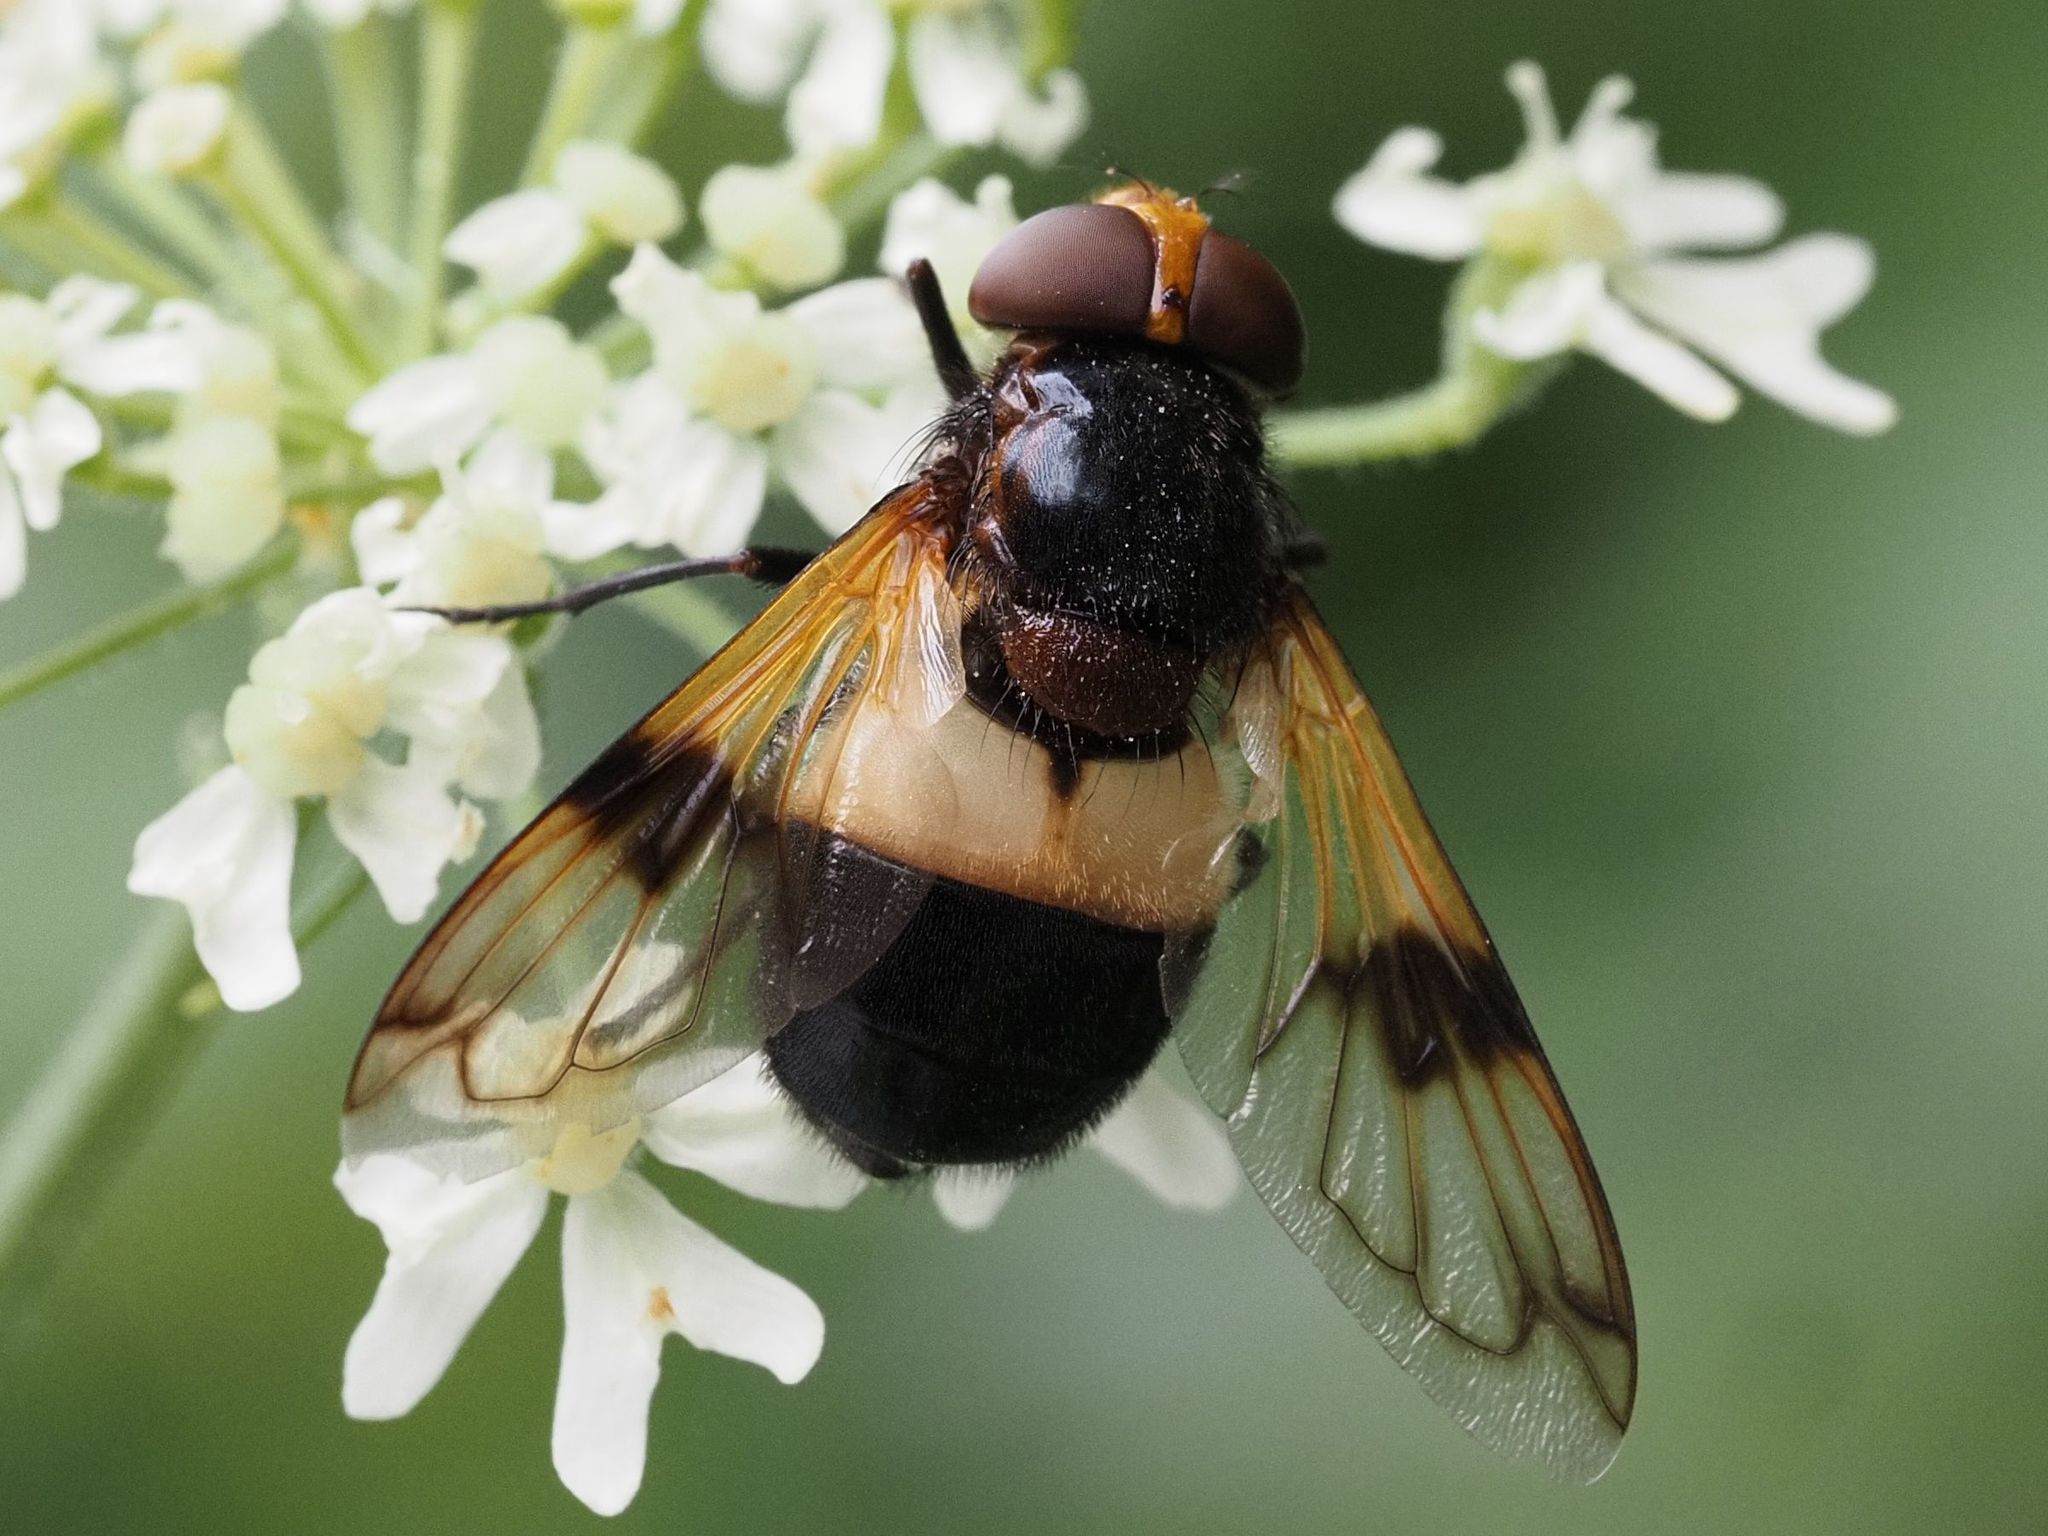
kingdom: Animalia
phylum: Arthropoda
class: Insecta
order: Diptera
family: Syrphidae
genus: Volucella
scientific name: Volucella pellucens
